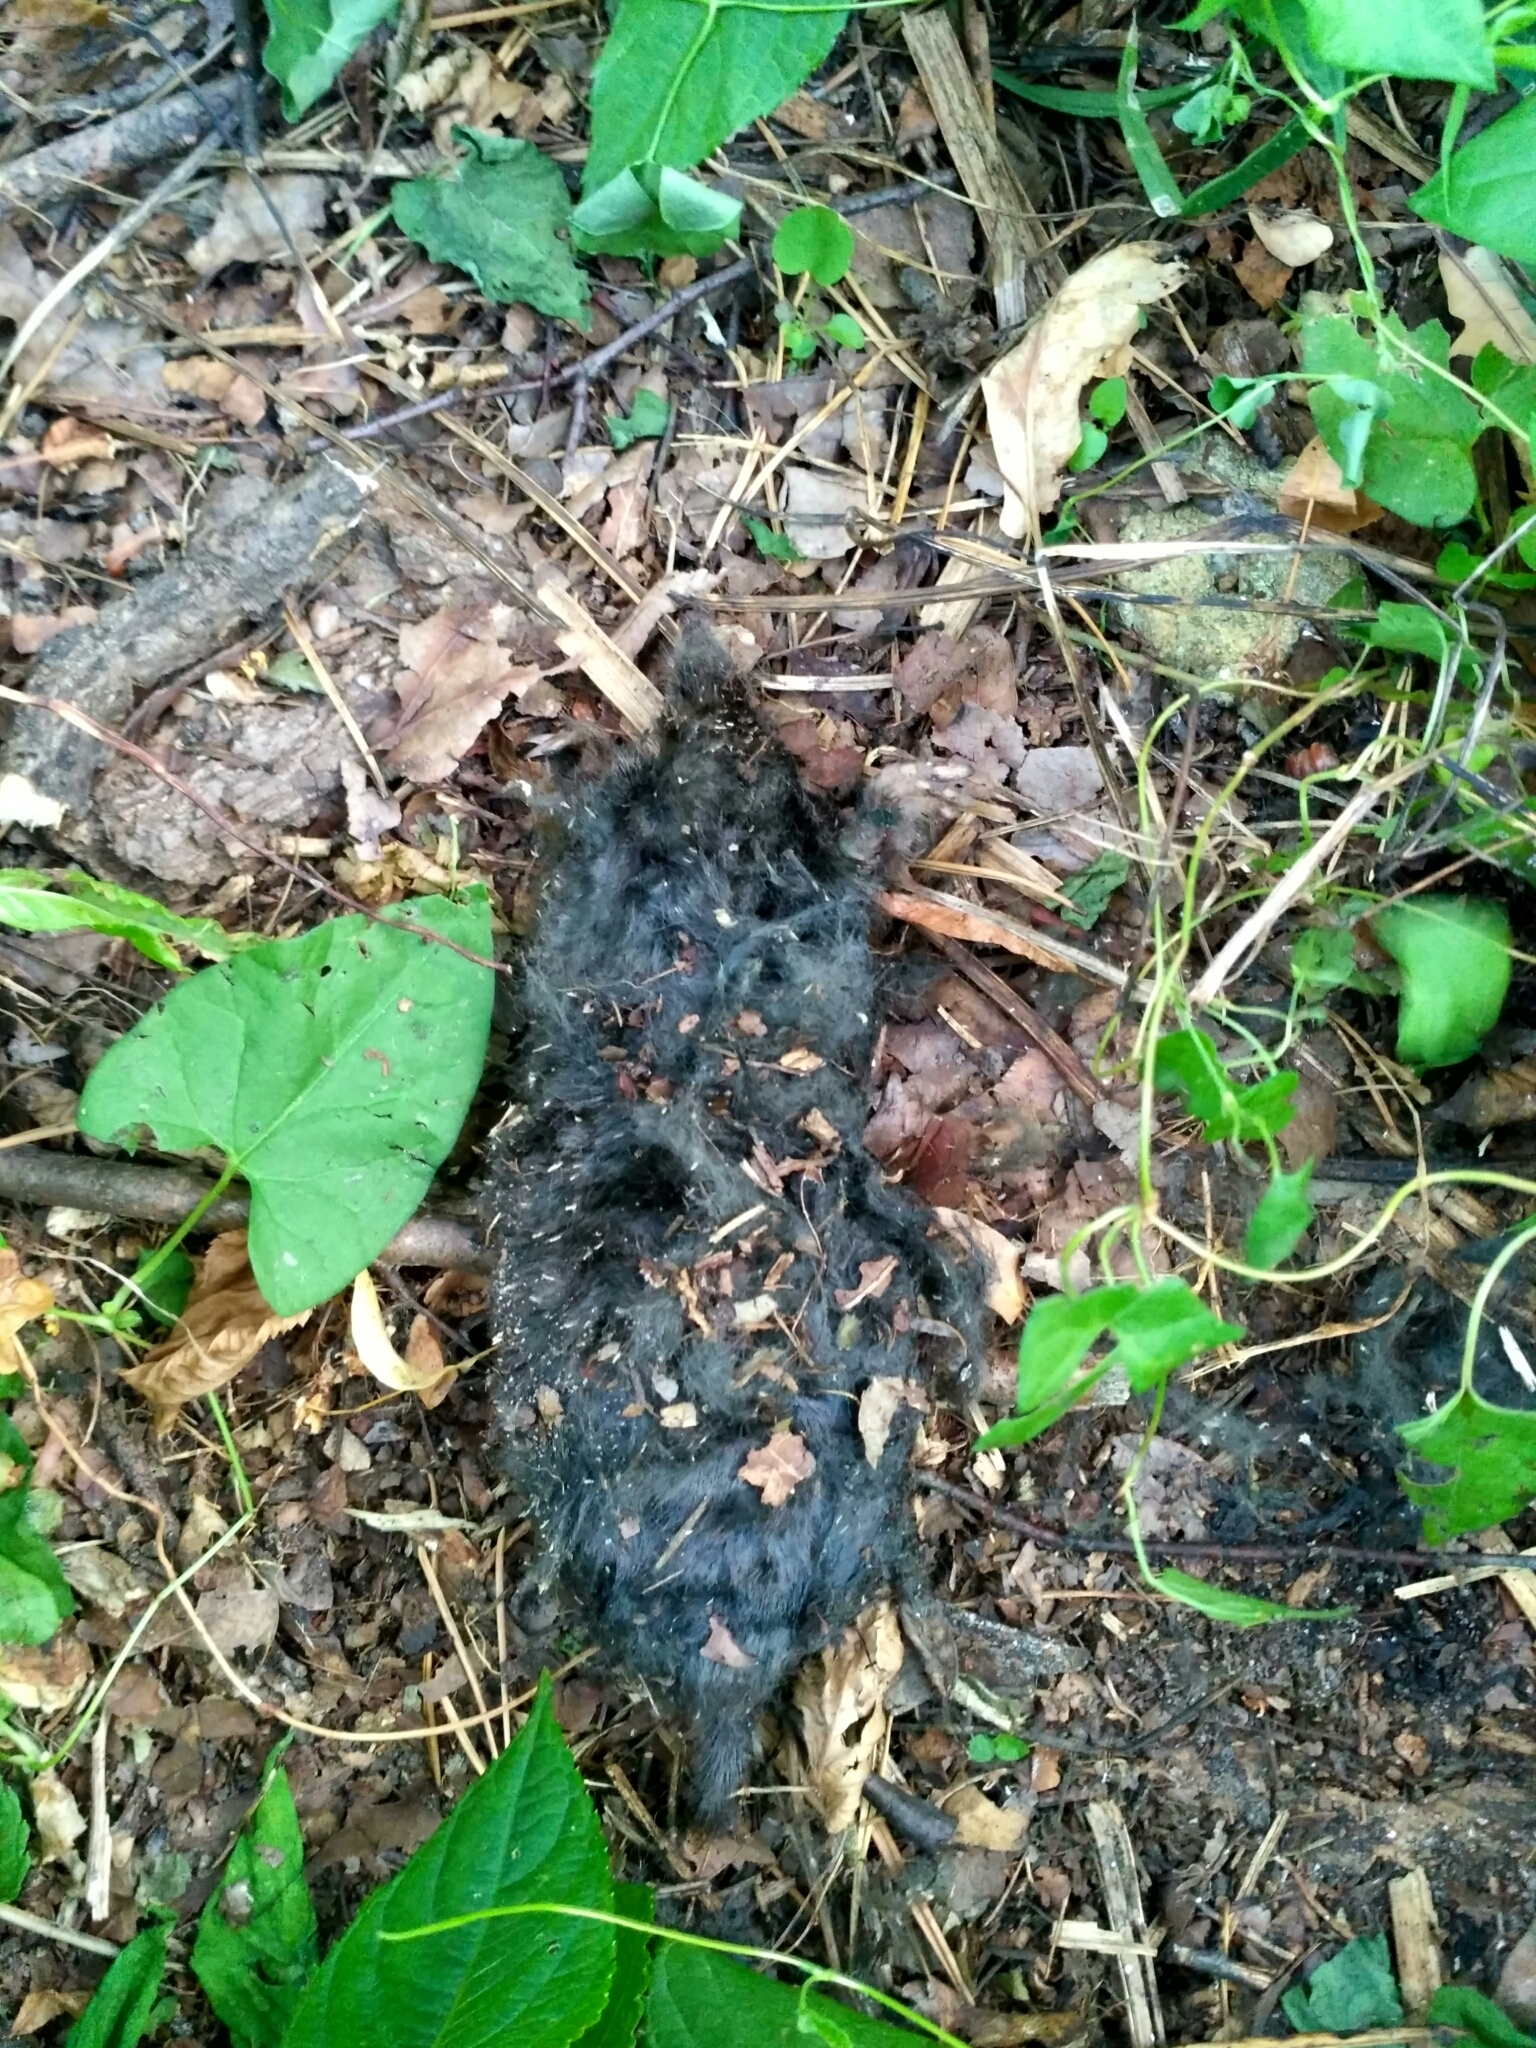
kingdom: Animalia
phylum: Chordata
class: Mammalia
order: Soricomorpha
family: Talpidae
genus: Talpa
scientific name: Talpa europaea
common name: European mole
